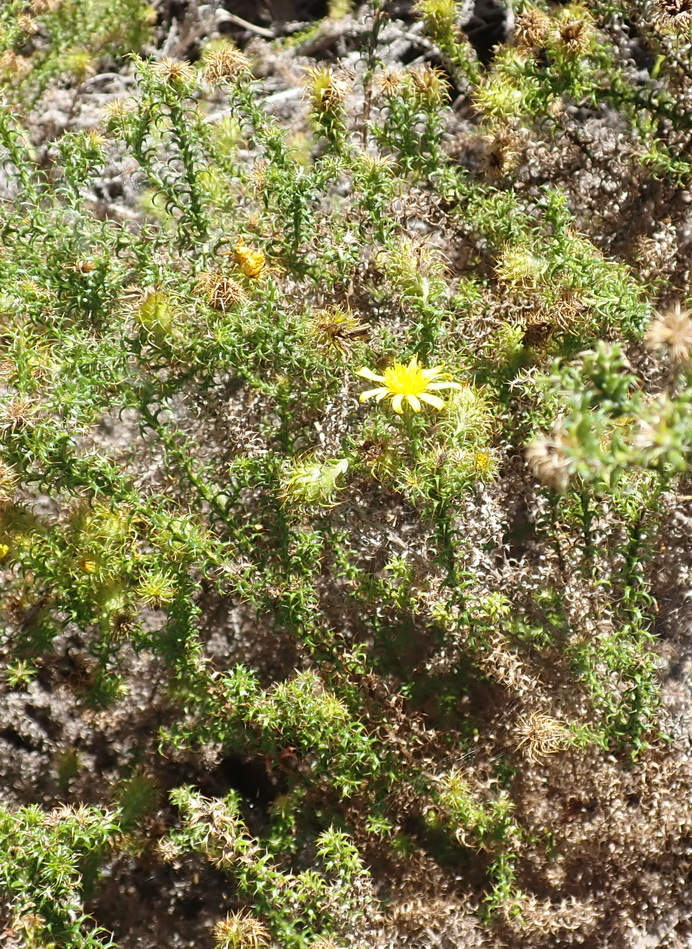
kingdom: Plantae
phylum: Tracheophyta
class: Magnoliopsida
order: Asterales
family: Asteraceae
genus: Cullumia
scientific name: Cullumia decurrens
